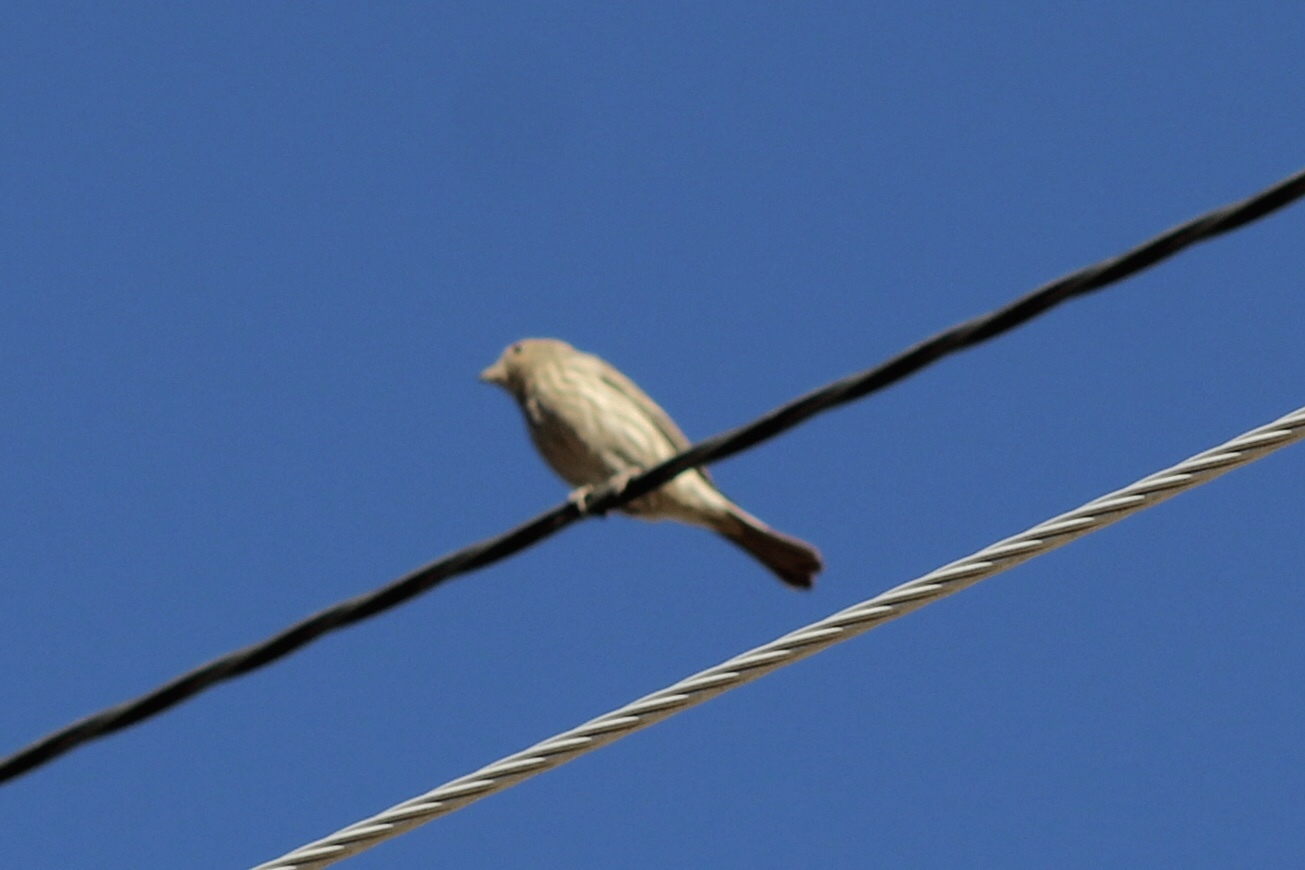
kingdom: Animalia
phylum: Chordata
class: Aves
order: Passeriformes
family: Fringillidae
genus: Haemorhous
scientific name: Haemorhous mexicanus
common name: House finch
